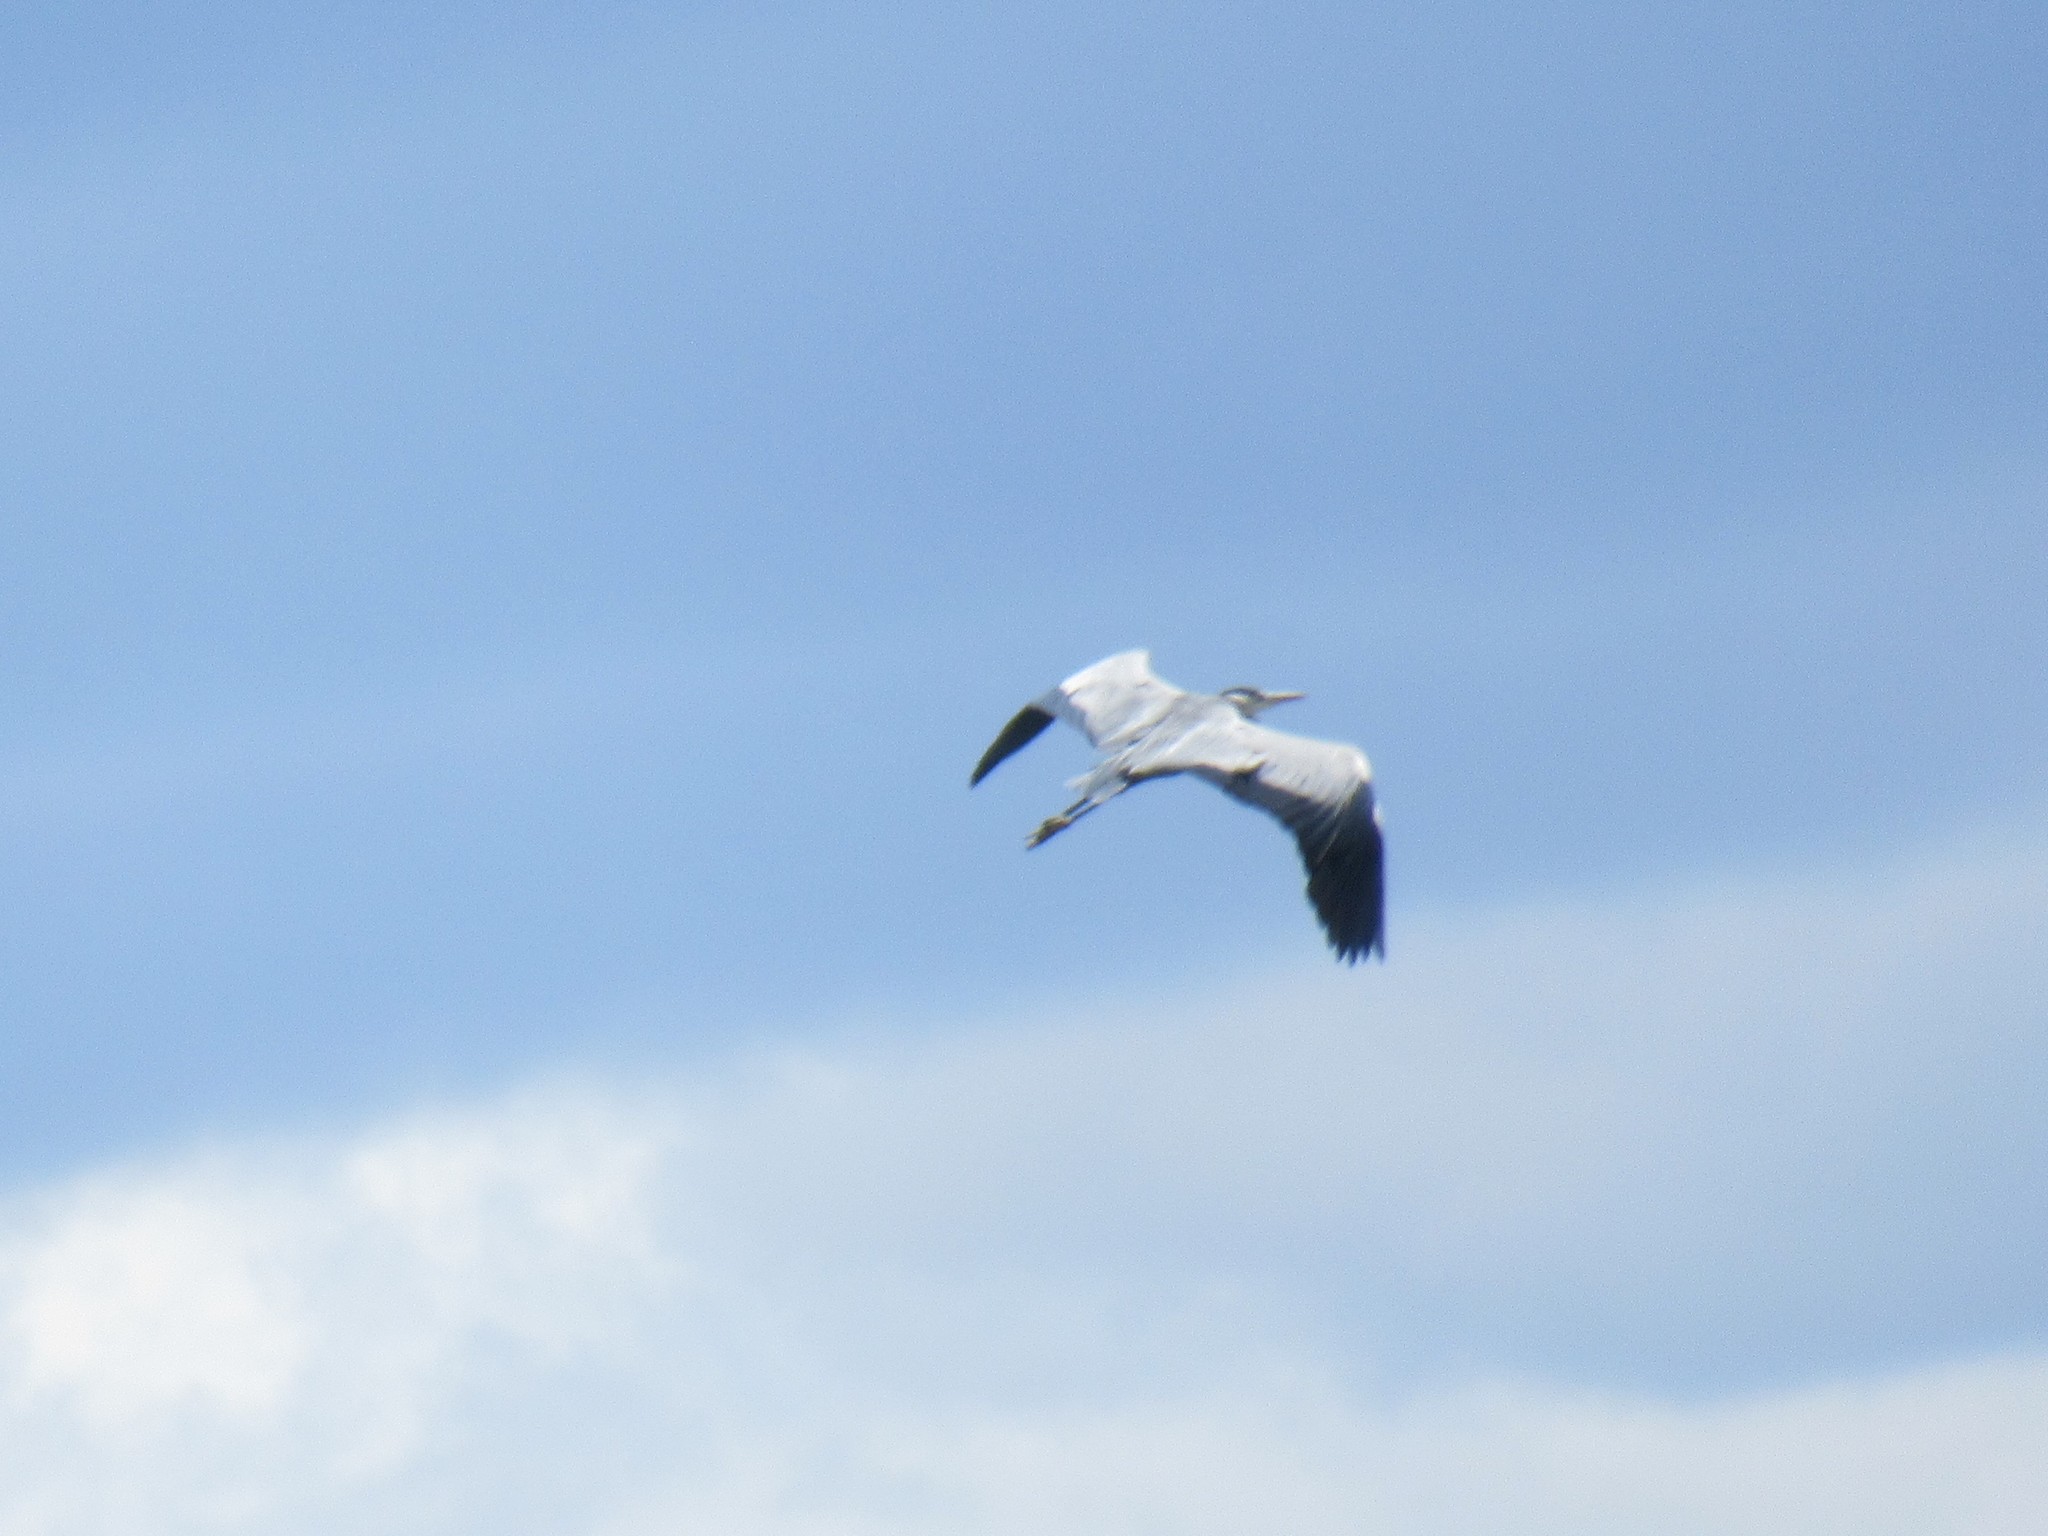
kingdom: Animalia
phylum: Chordata
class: Aves
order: Pelecaniformes
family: Ardeidae
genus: Ardea
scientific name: Ardea cinerea
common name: Grey heron
